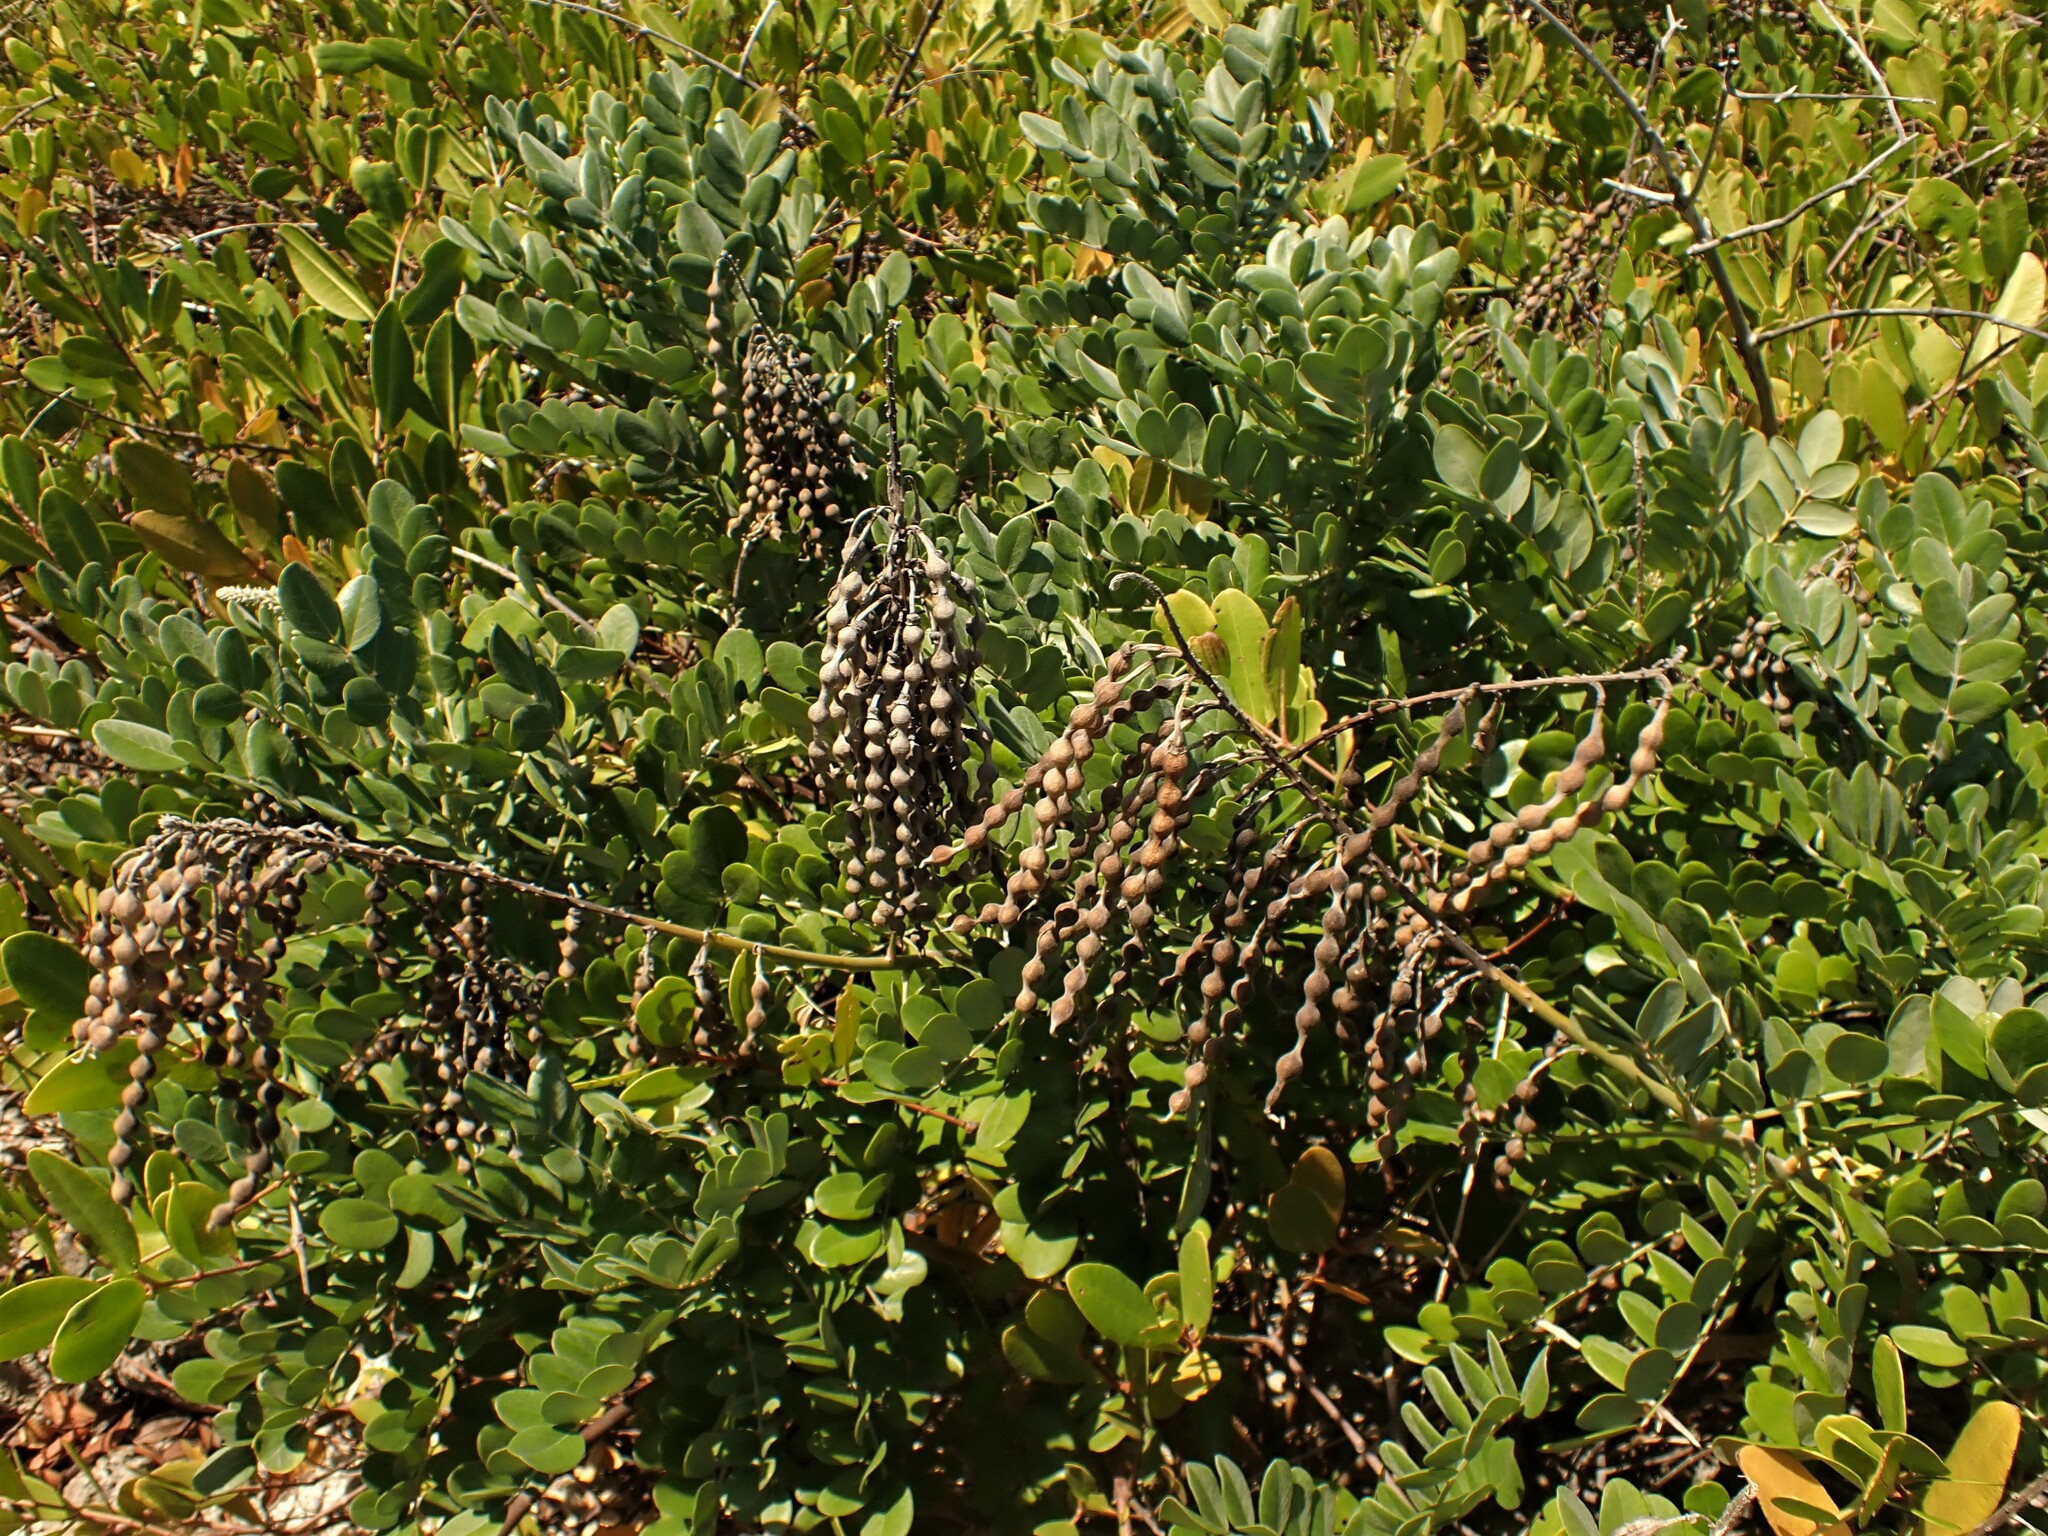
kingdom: Plantae
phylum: Tracheophyta
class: Magnoliopsida
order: Fabales
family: Fabaceae
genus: Sophora
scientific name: Sophora tomentosa
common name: Yellow necklacepod
